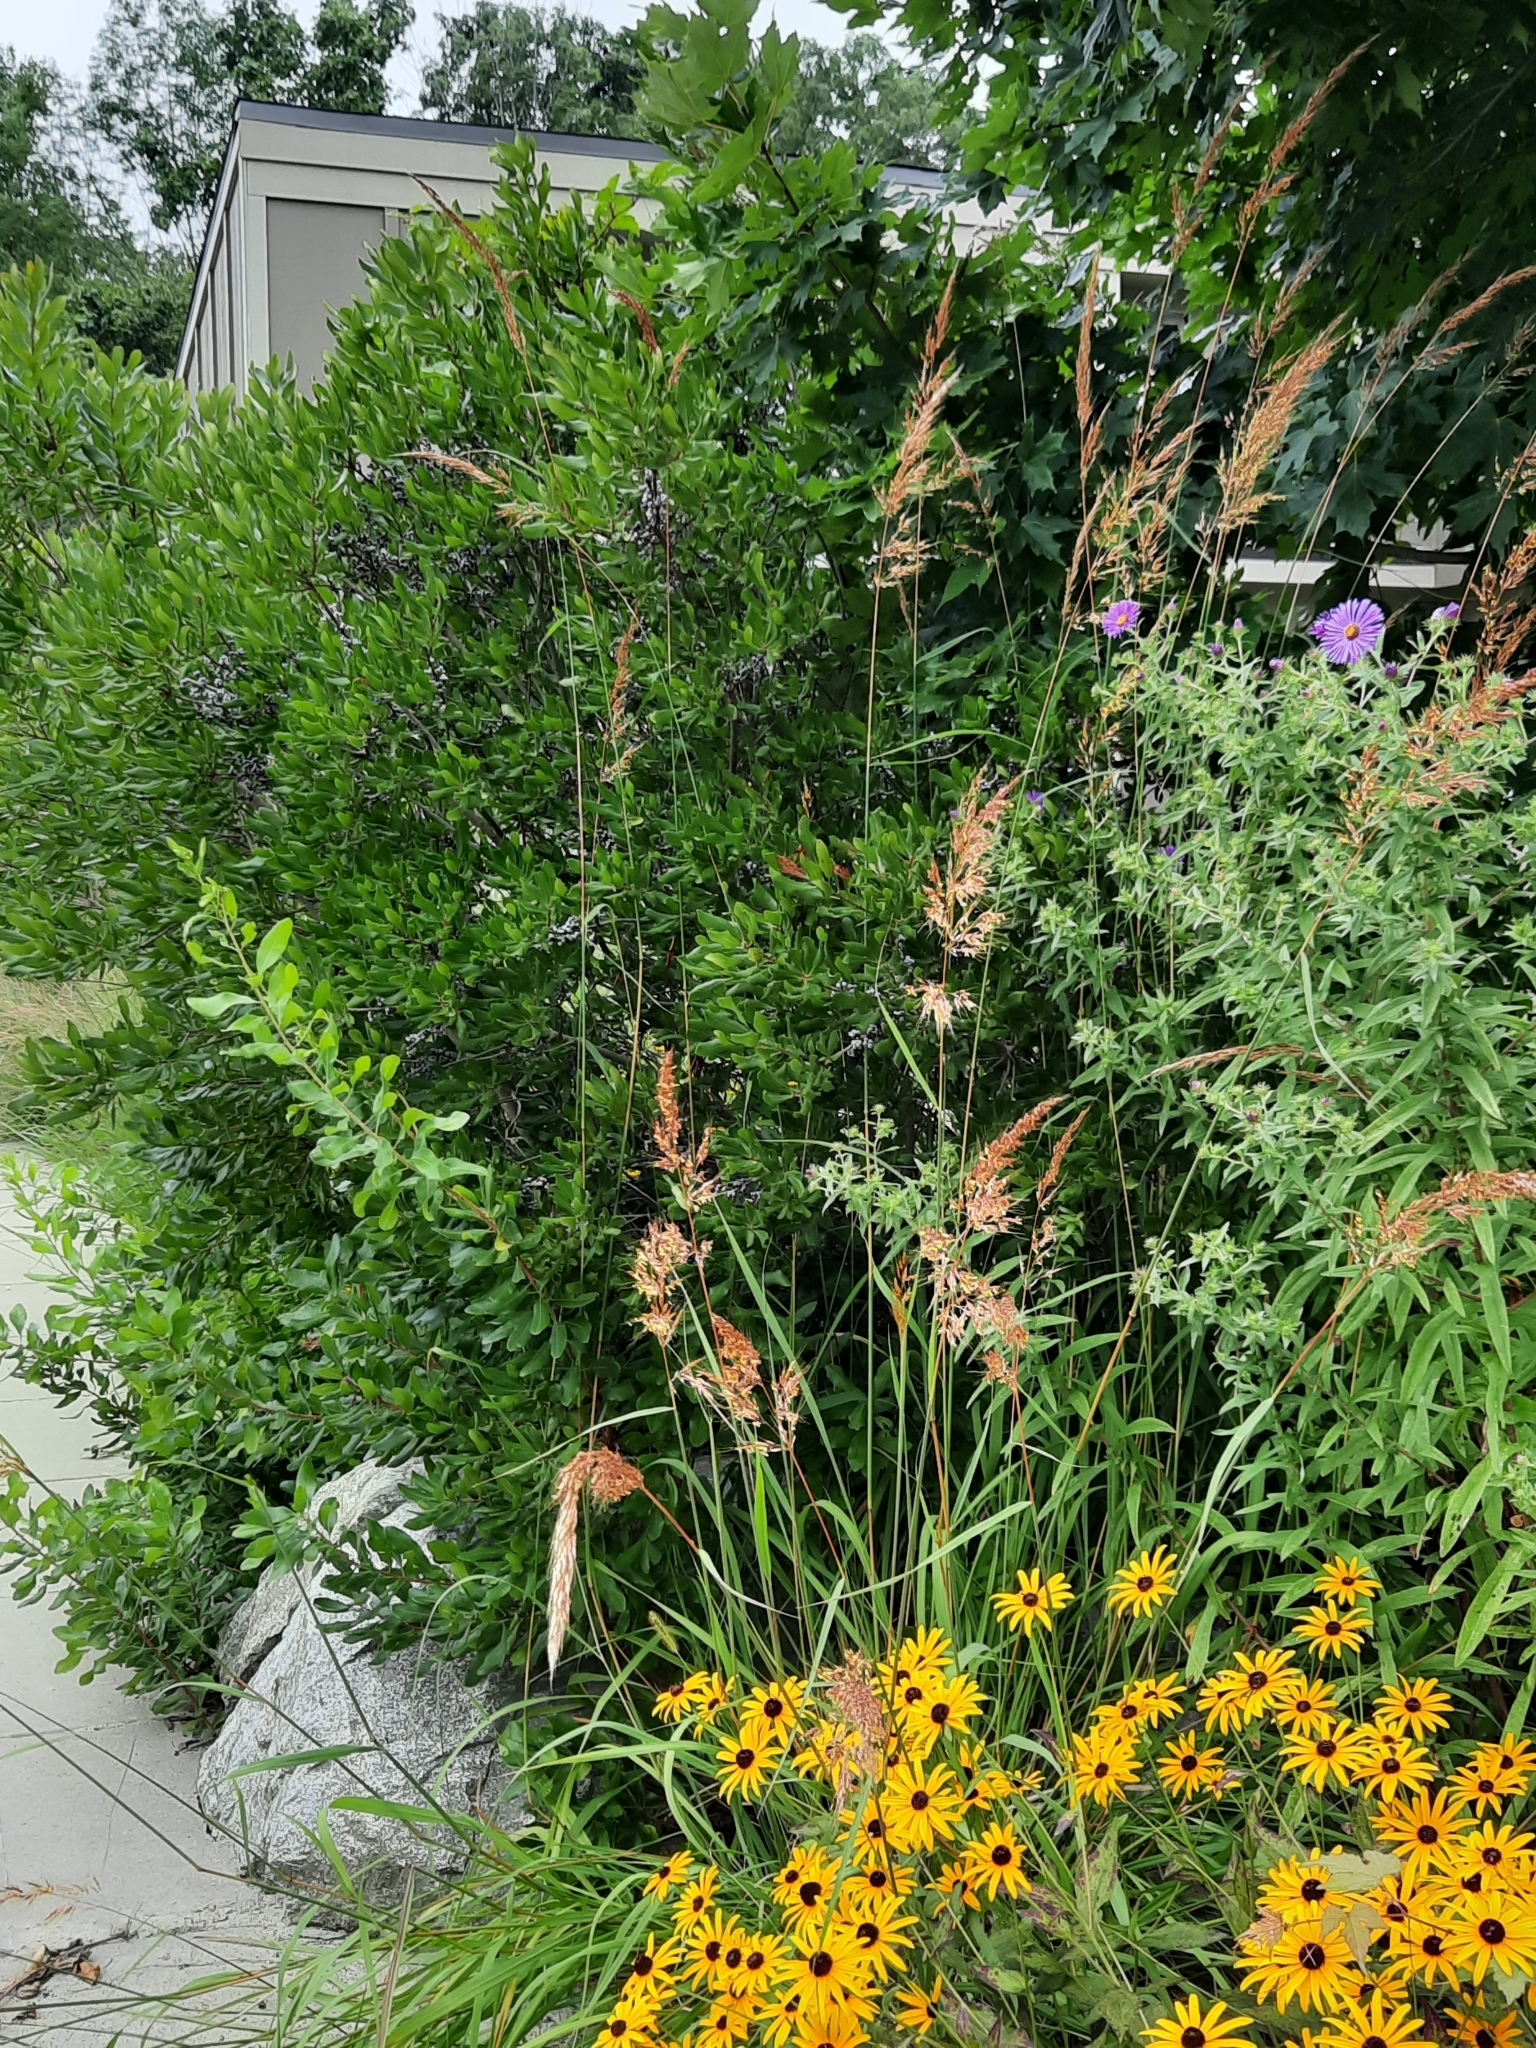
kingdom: Plantae
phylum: Tracheophyta
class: Magnoliopsida
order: Fagales
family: Myricaceae
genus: Morella
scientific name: Morella pensylvanica
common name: Northern bayberry
